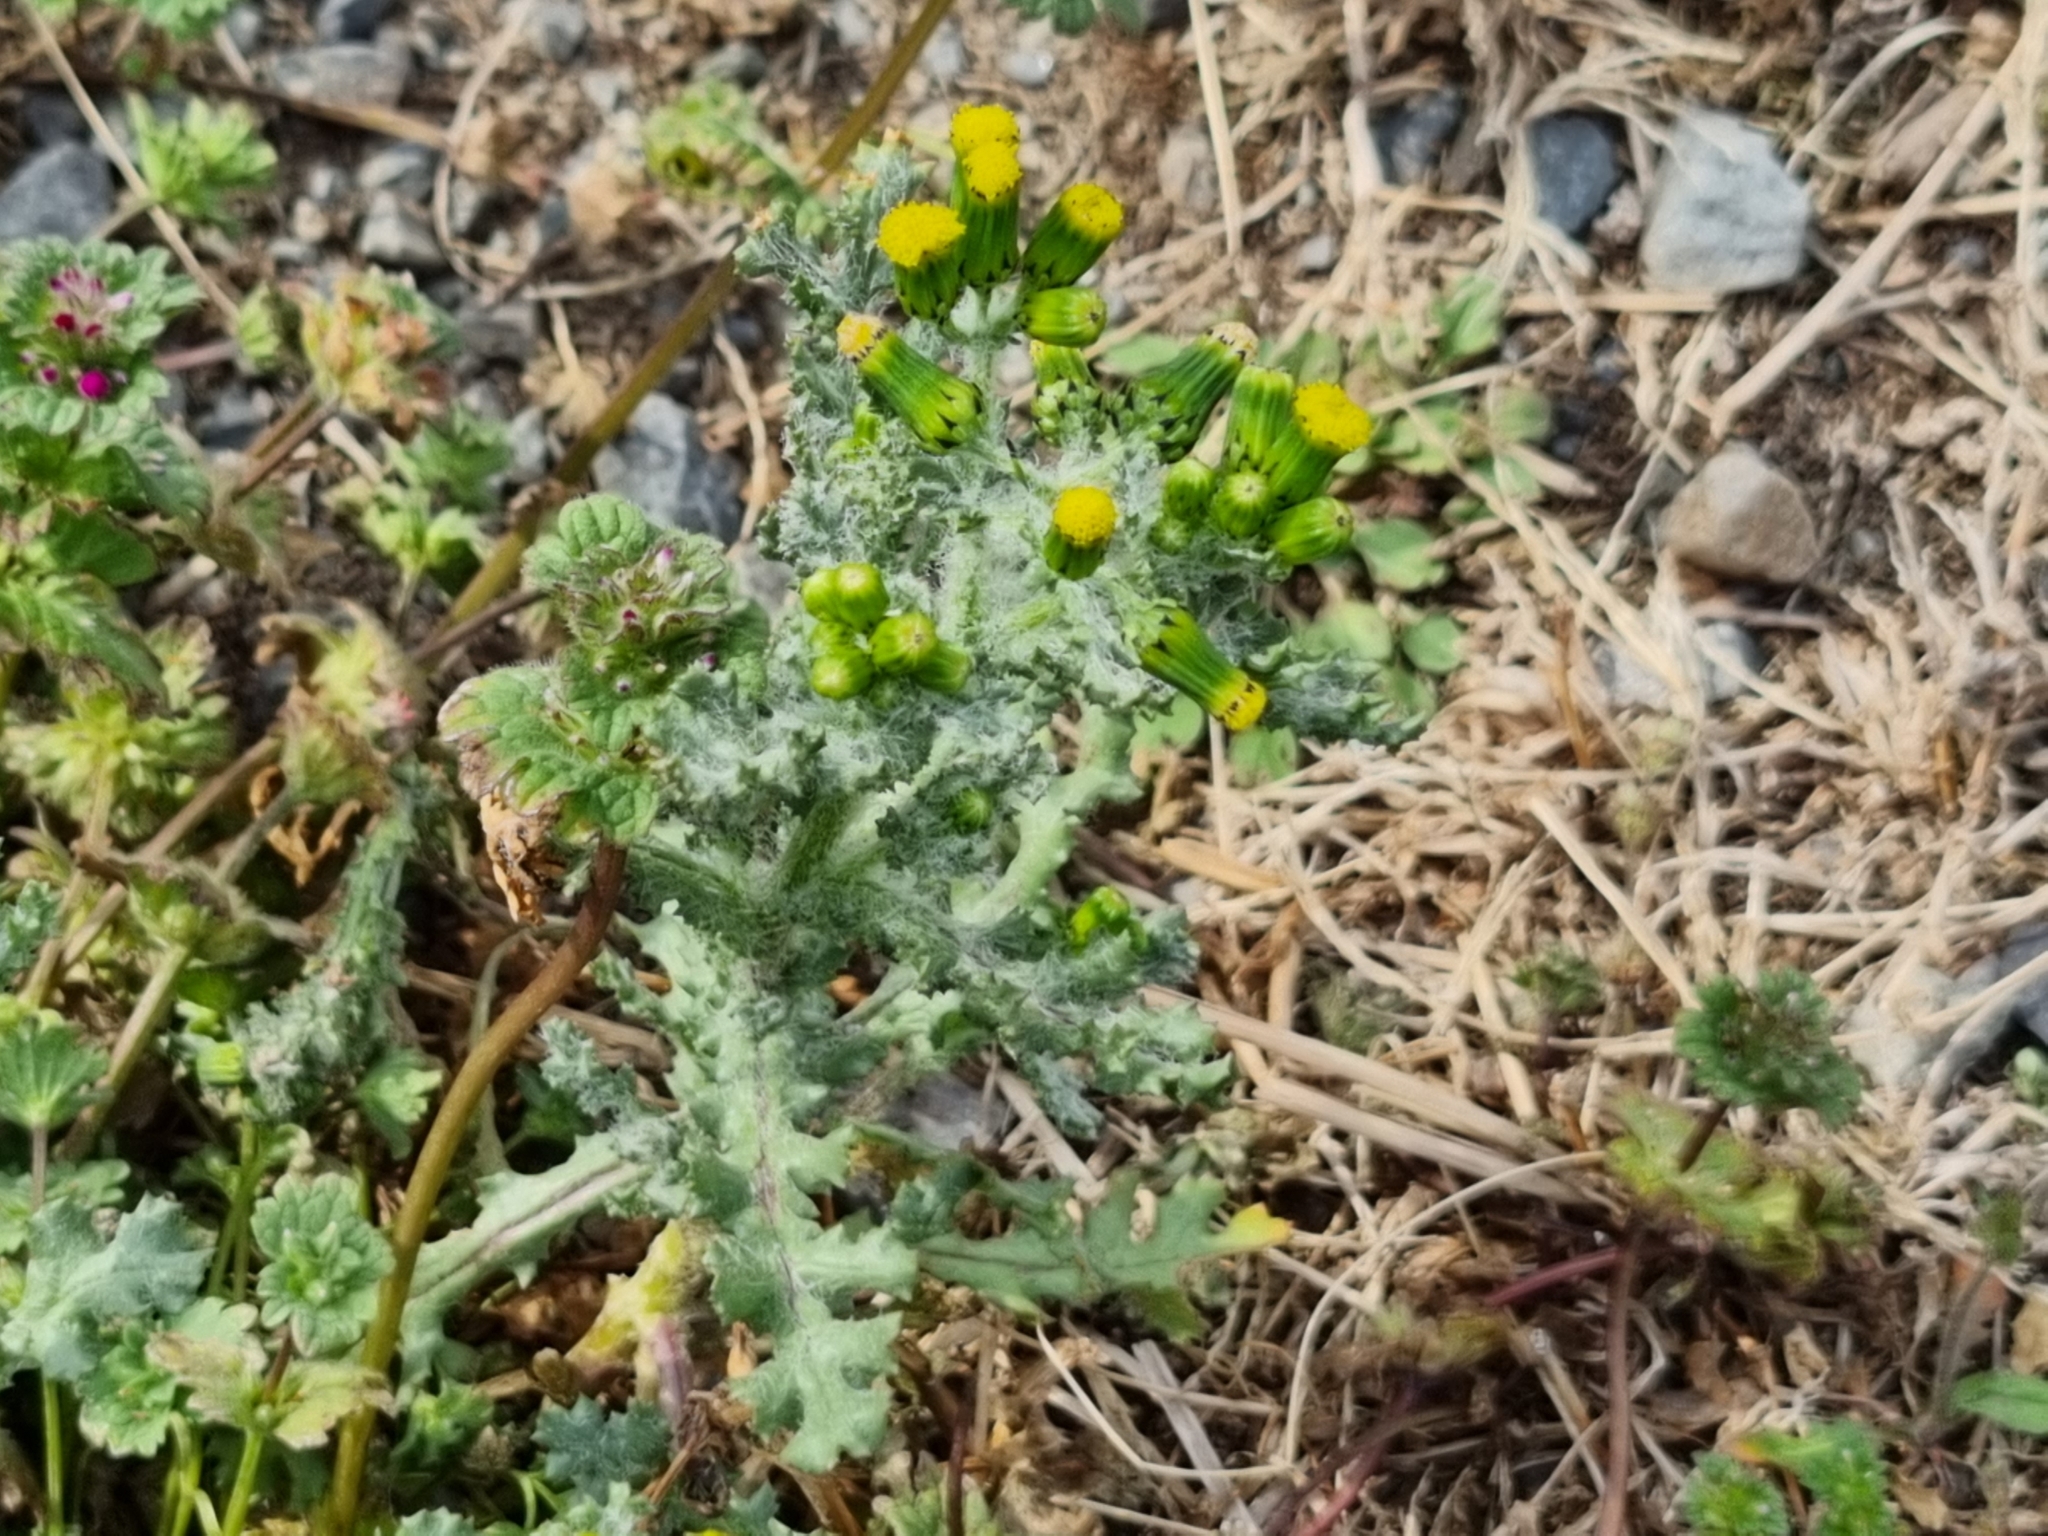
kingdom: Plantae
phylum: Tracheophyta
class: Magnoliopsida
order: Asterales
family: Asteraceae
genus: Senecio
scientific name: Senecio vulgaris
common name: Old-man-in-the-spring
